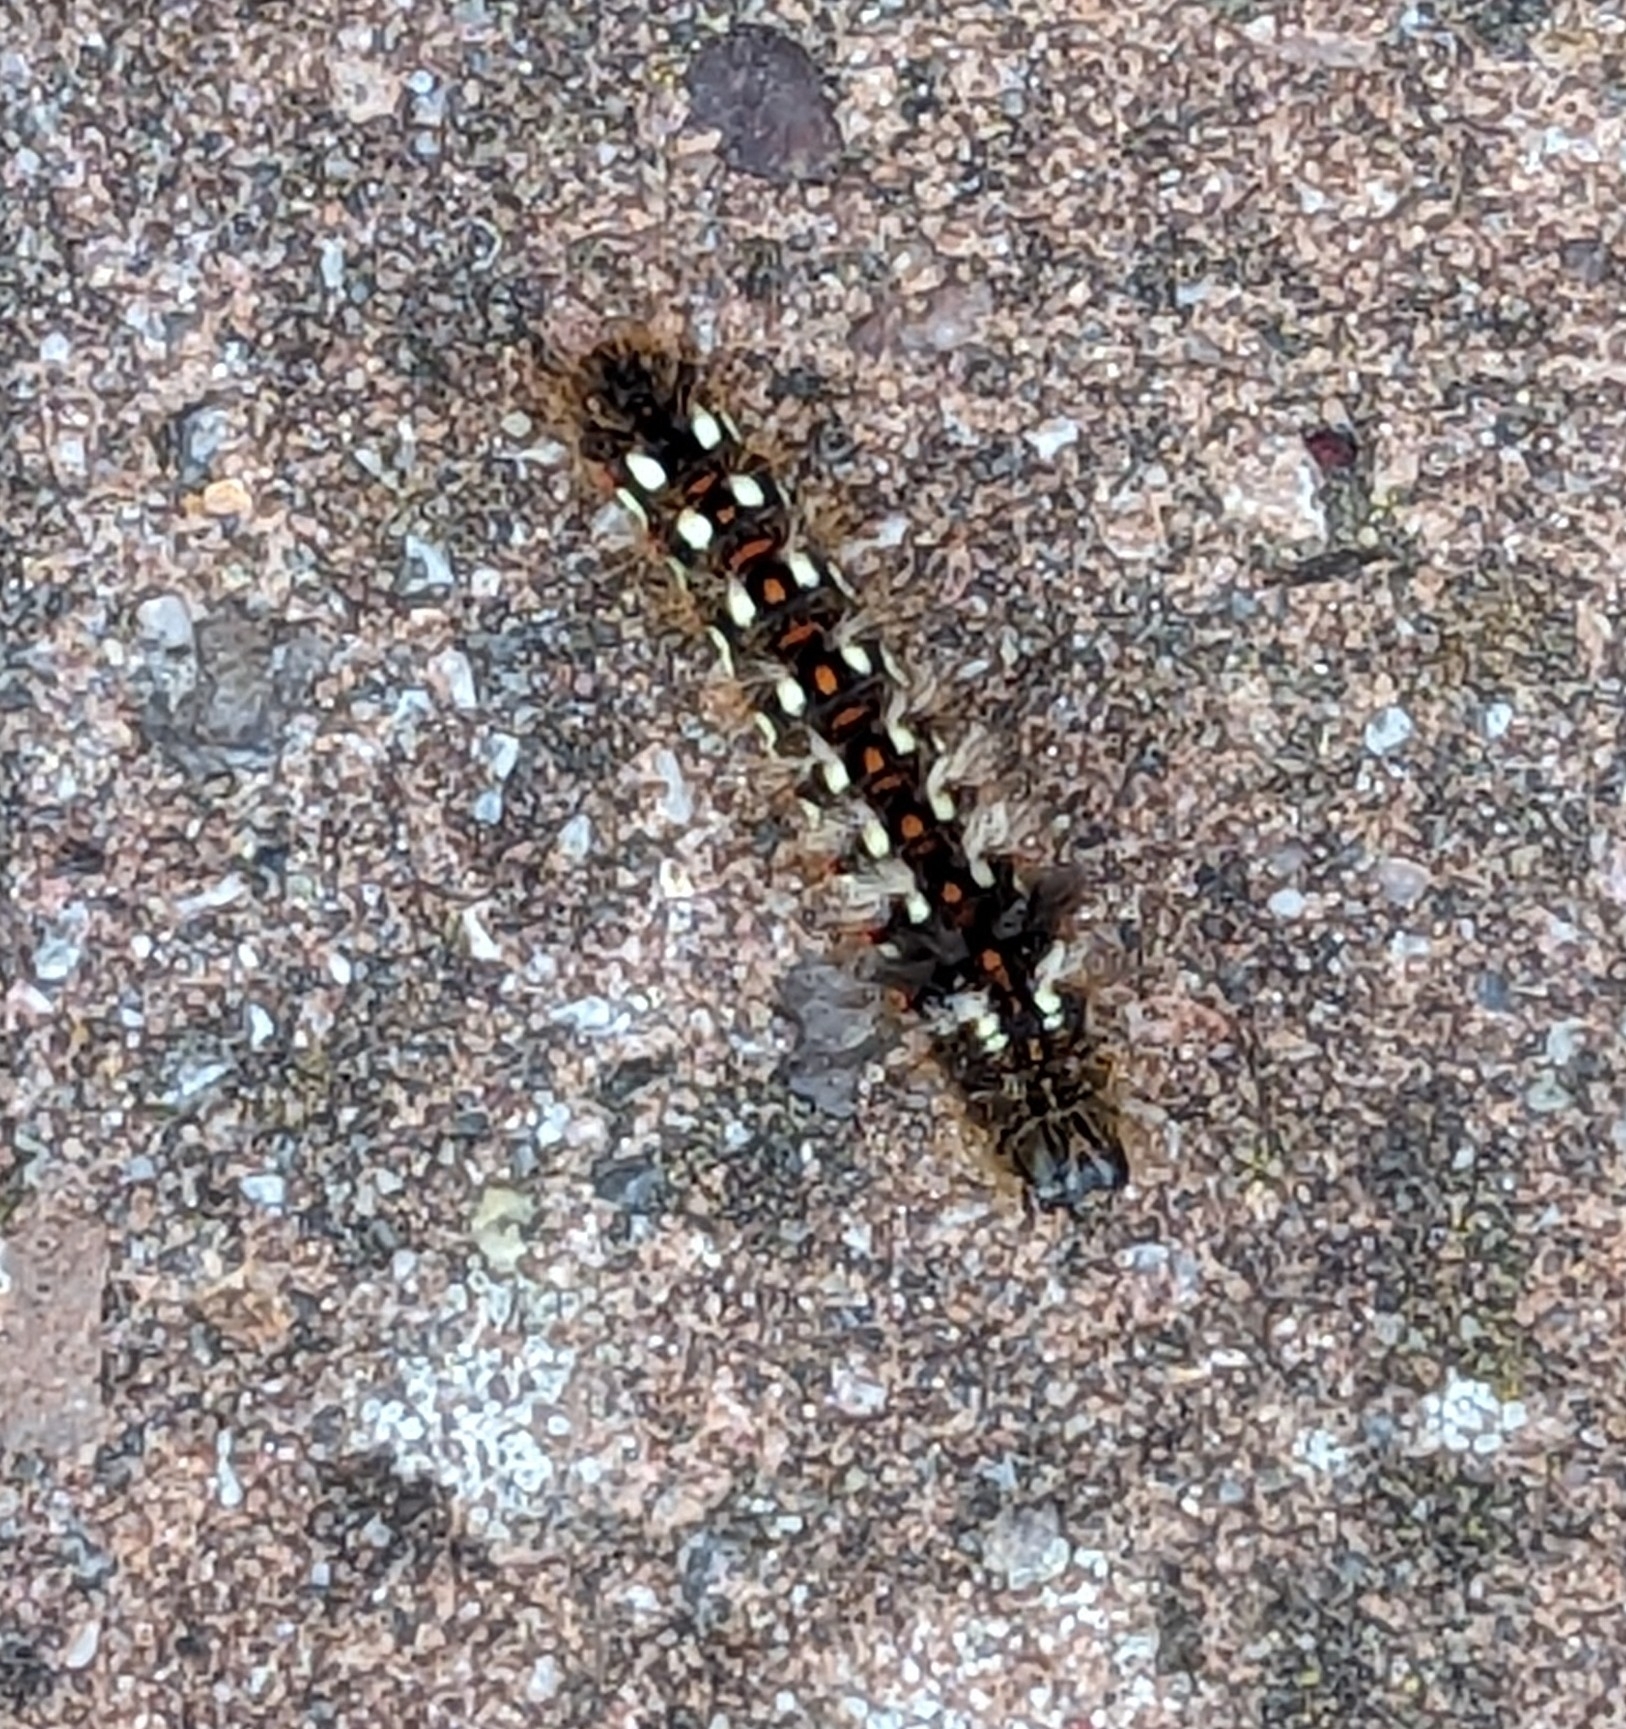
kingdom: Animalia
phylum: Arthropoda
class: Insecta
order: Lepidoptera
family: Noctuidae
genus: Acronicta
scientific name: Acronicta rumicis
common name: Knot grass
